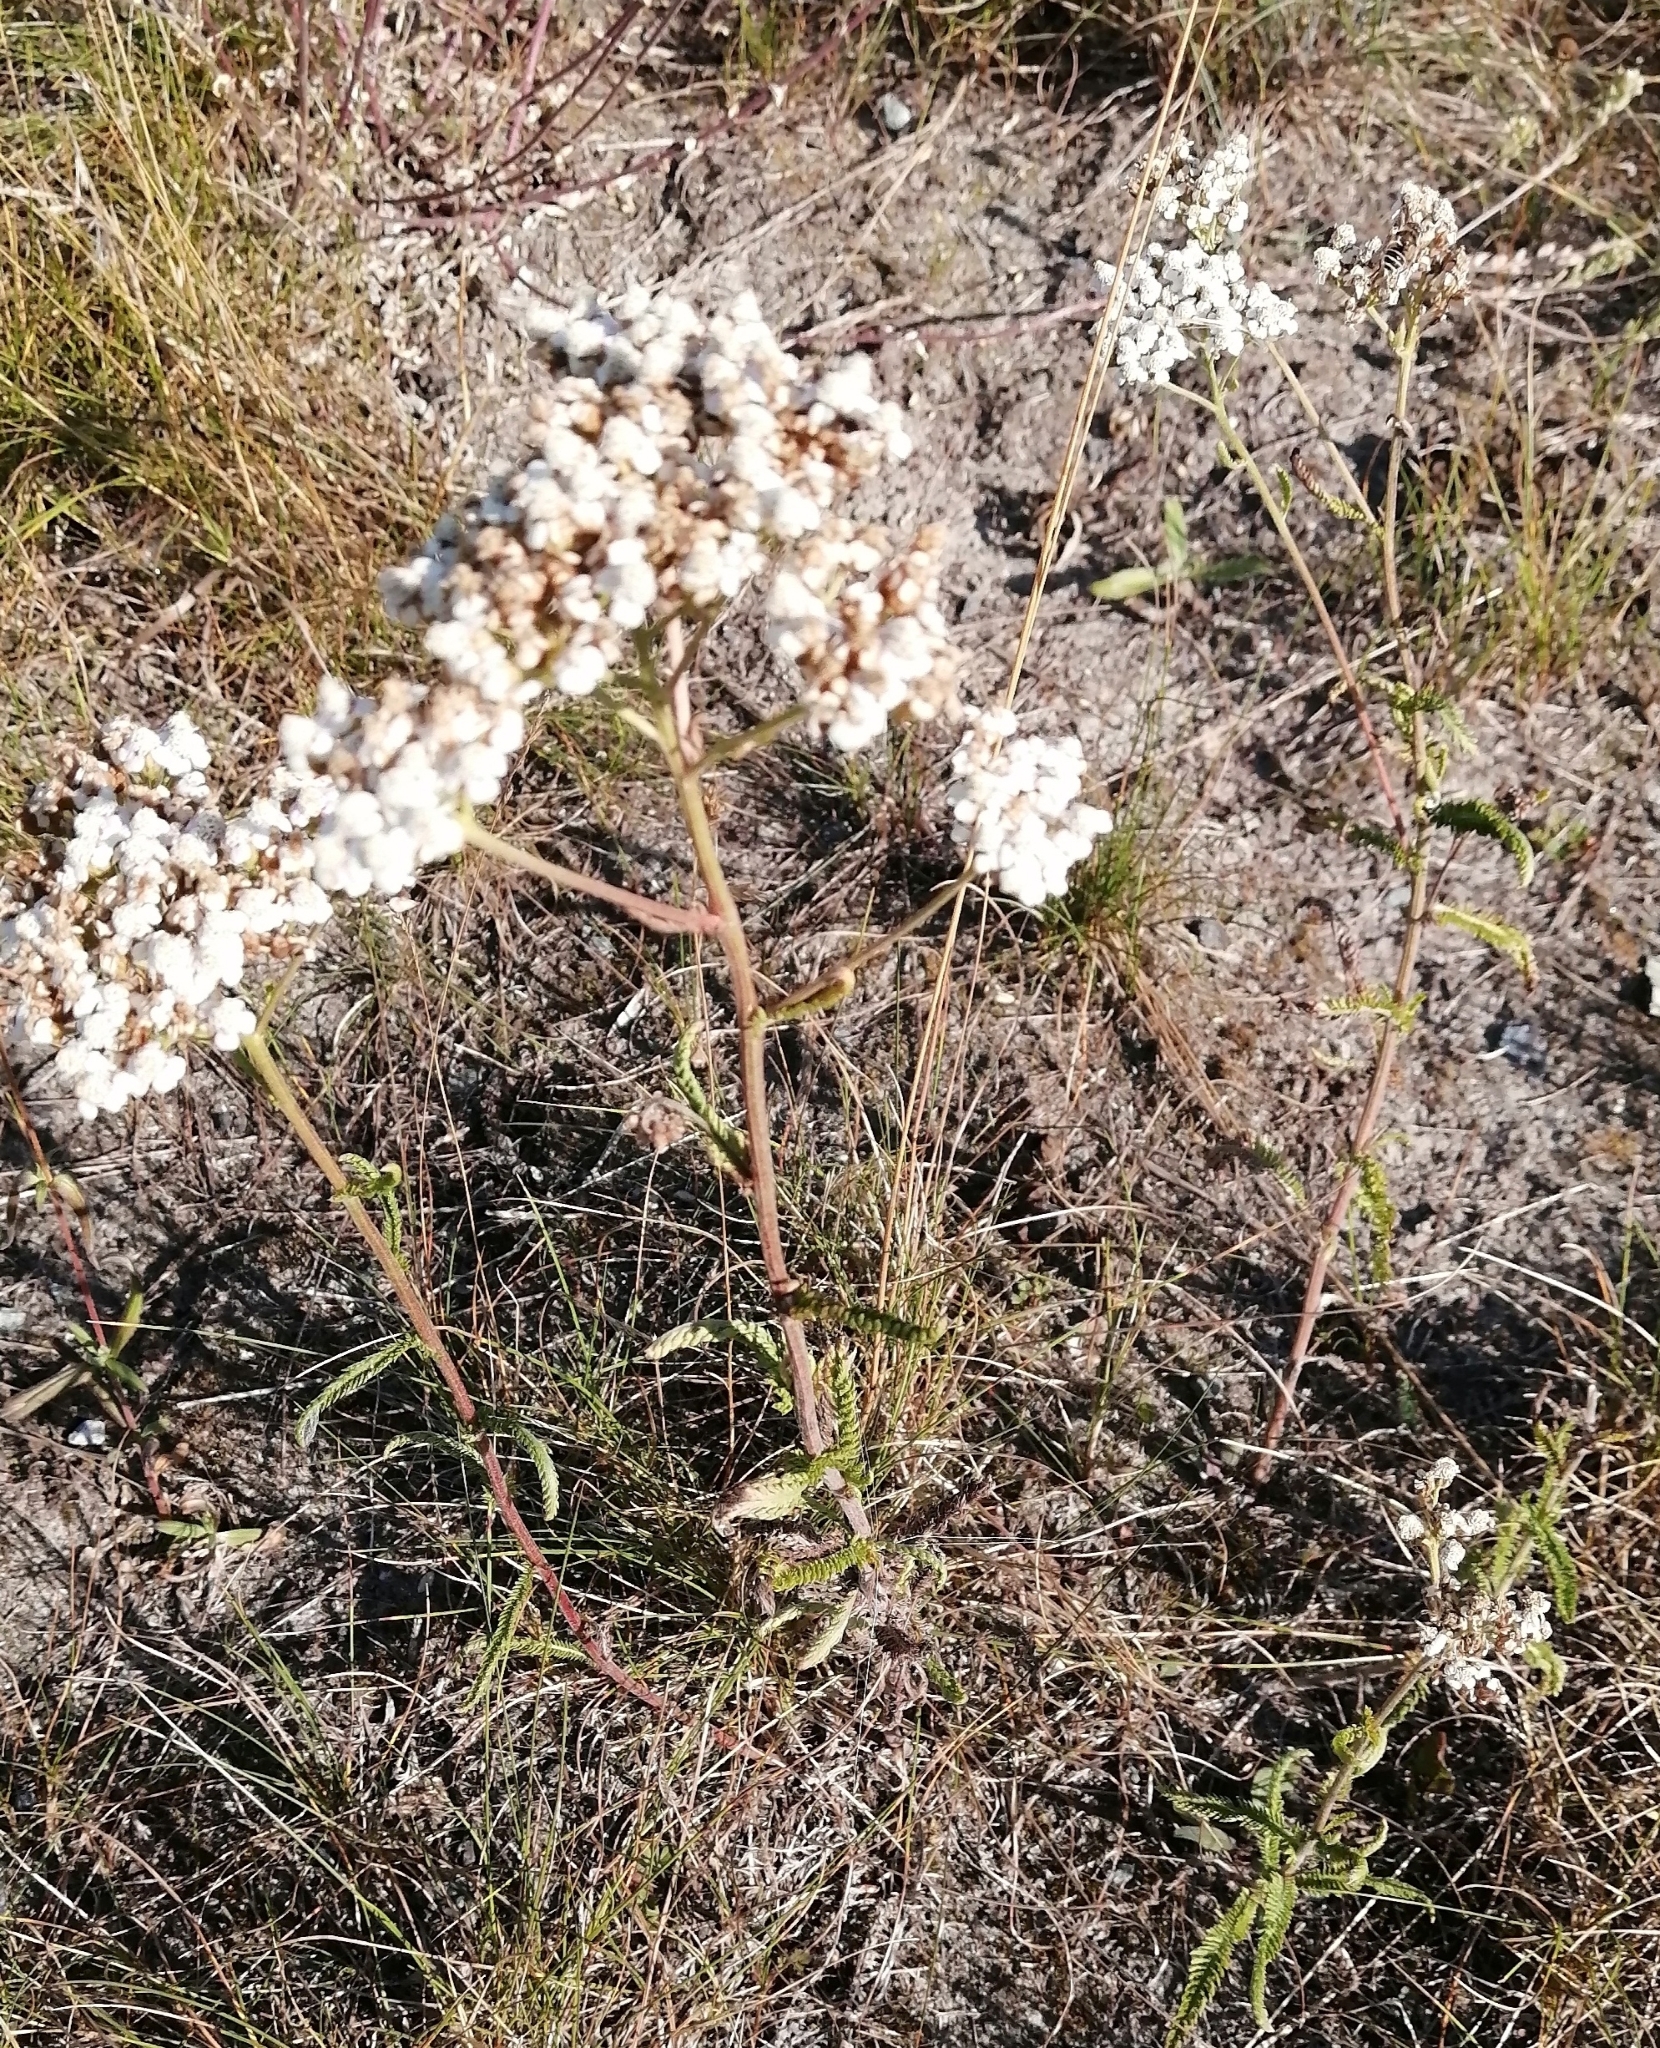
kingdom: Plantae
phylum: Tracheophyta
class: Magnoliopsida
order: Asterales
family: Asteraceae
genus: Achillea
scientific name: Achillea millefolium
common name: Yarrow
